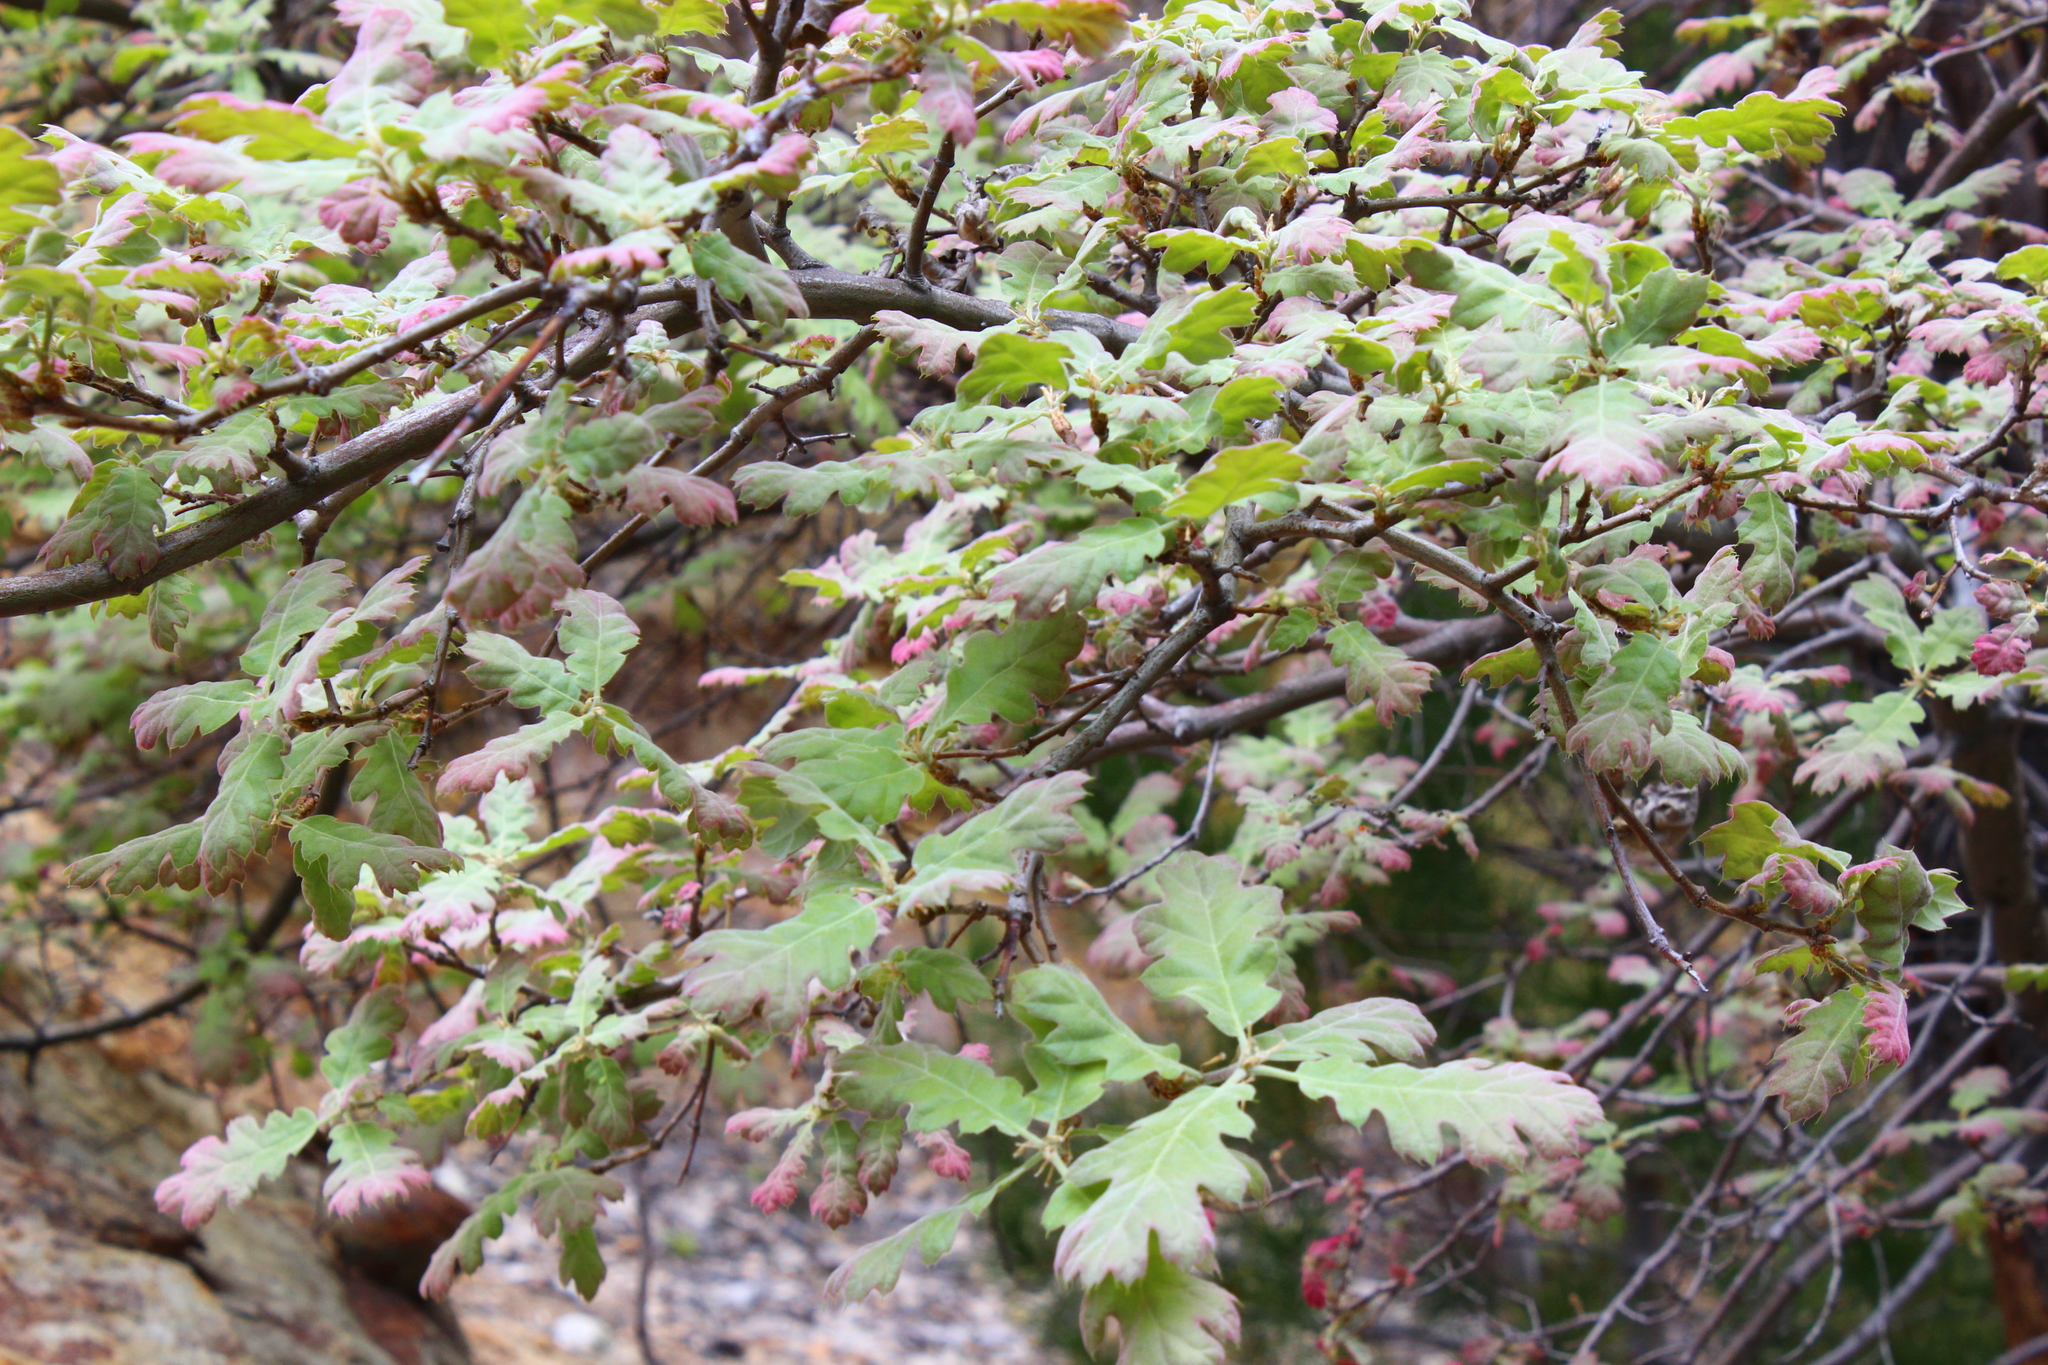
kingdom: Plantae
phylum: Tracheophyta
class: Magnoliopsida
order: Fagales
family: Fagaceae
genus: Quercus
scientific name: Quercus kelloggii
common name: California black oak
